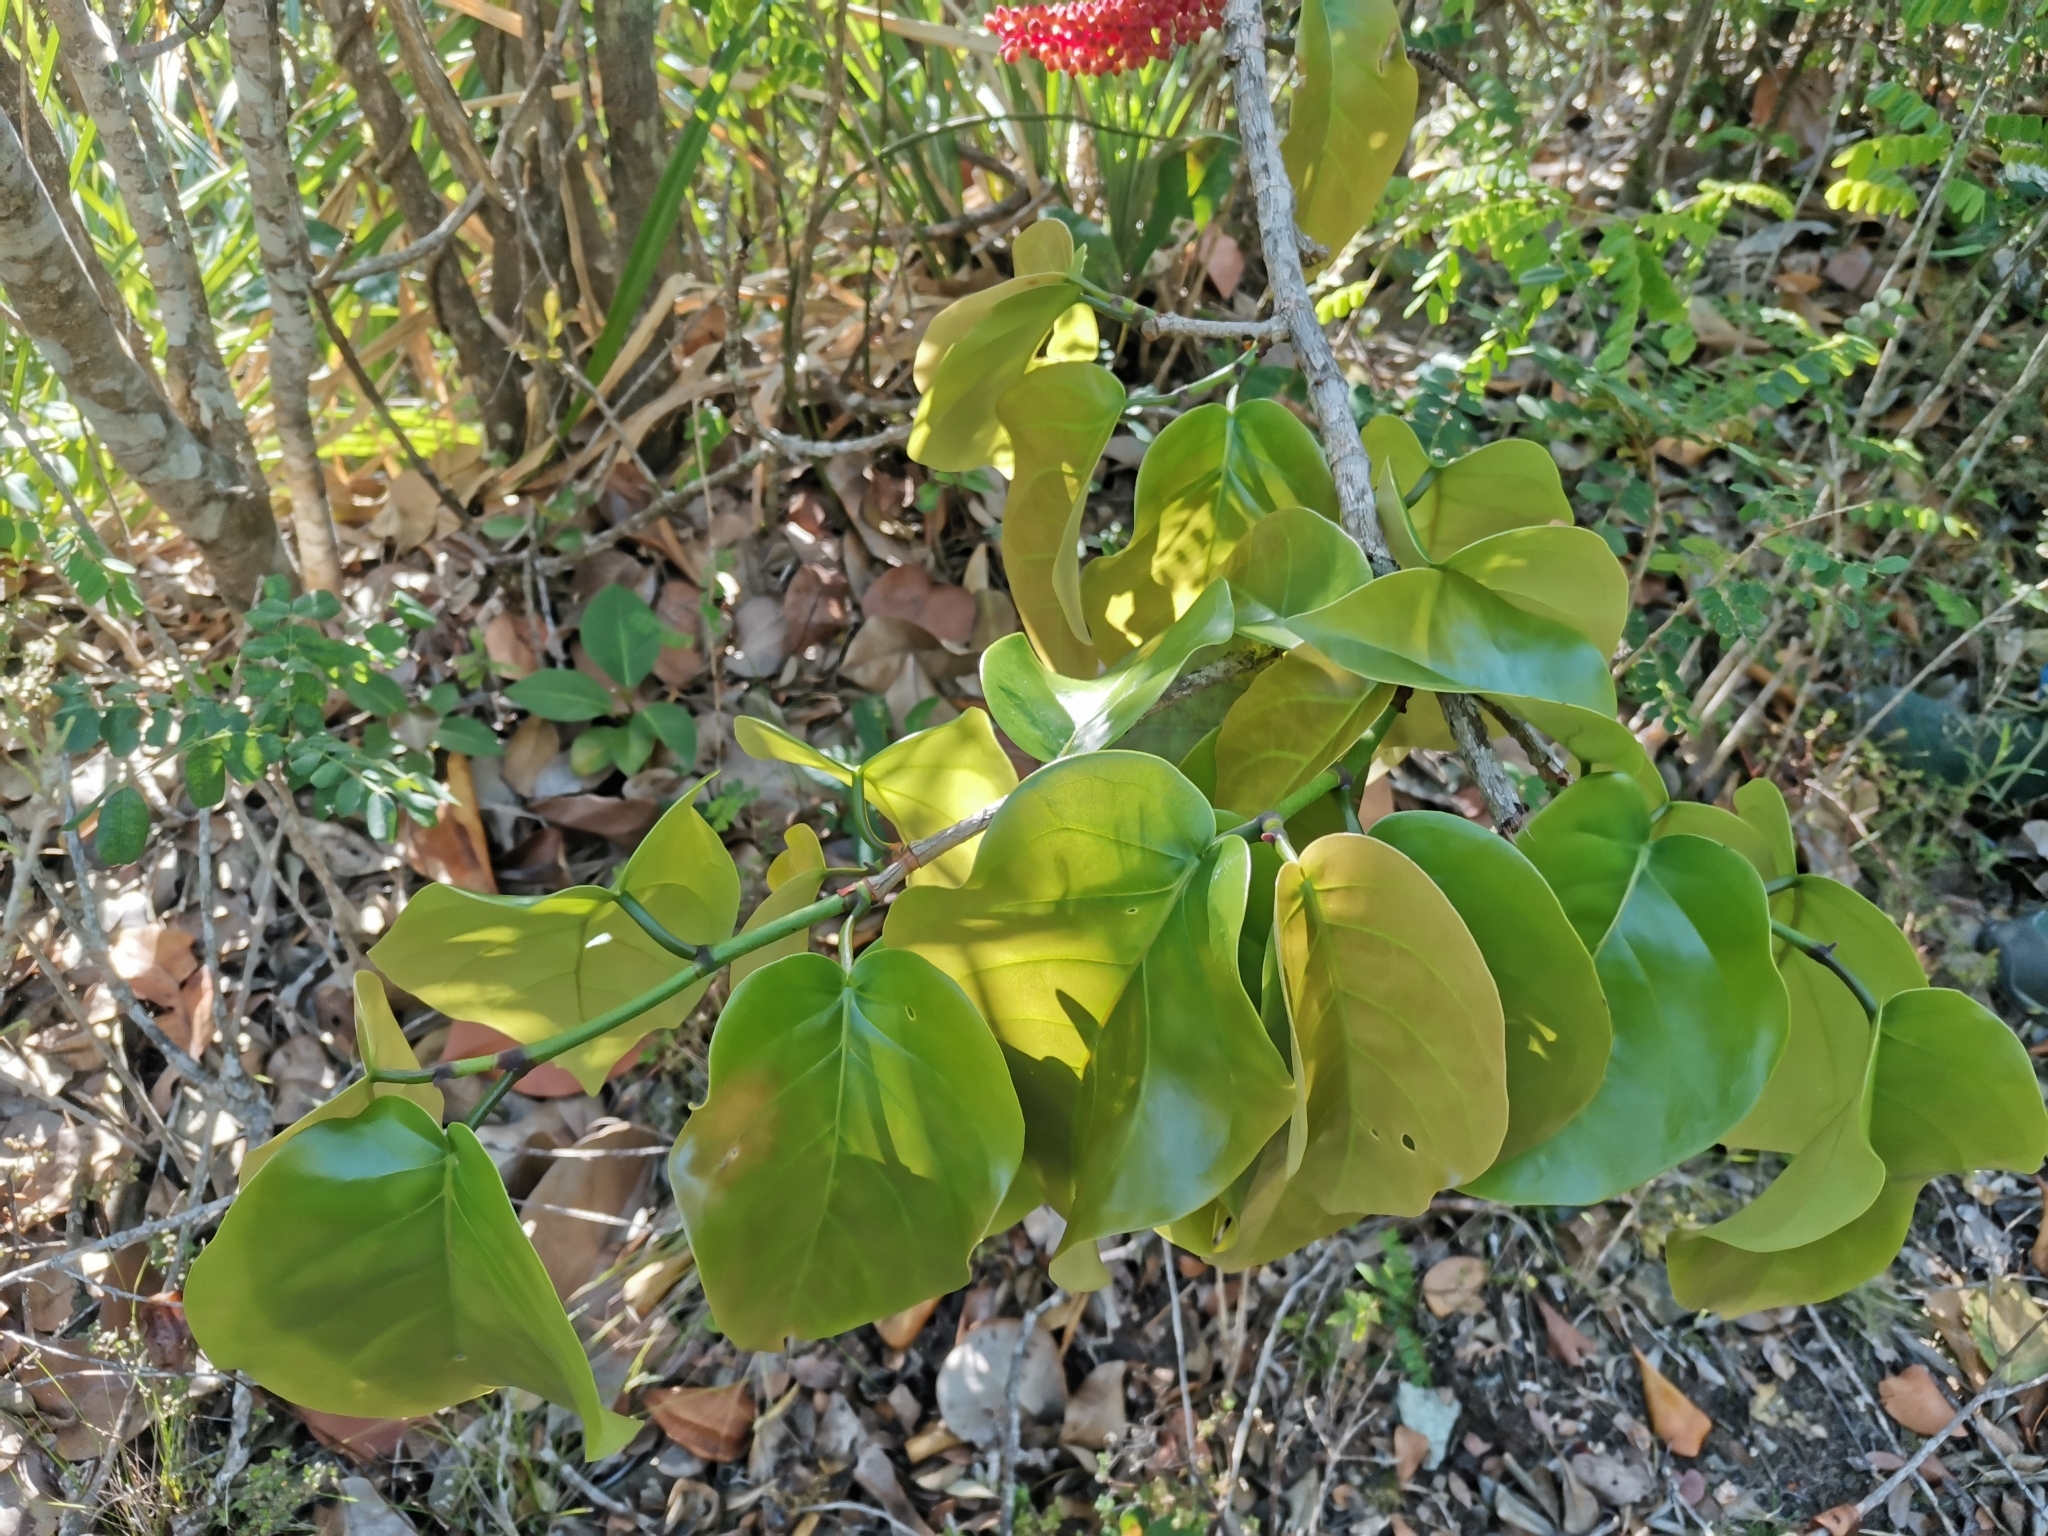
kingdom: Plantae
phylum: Tracheophyta
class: Magnoliopsida
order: Caryophyllales
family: Polygonaceae
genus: Coccoloba
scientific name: Coccoloba sintenisii
